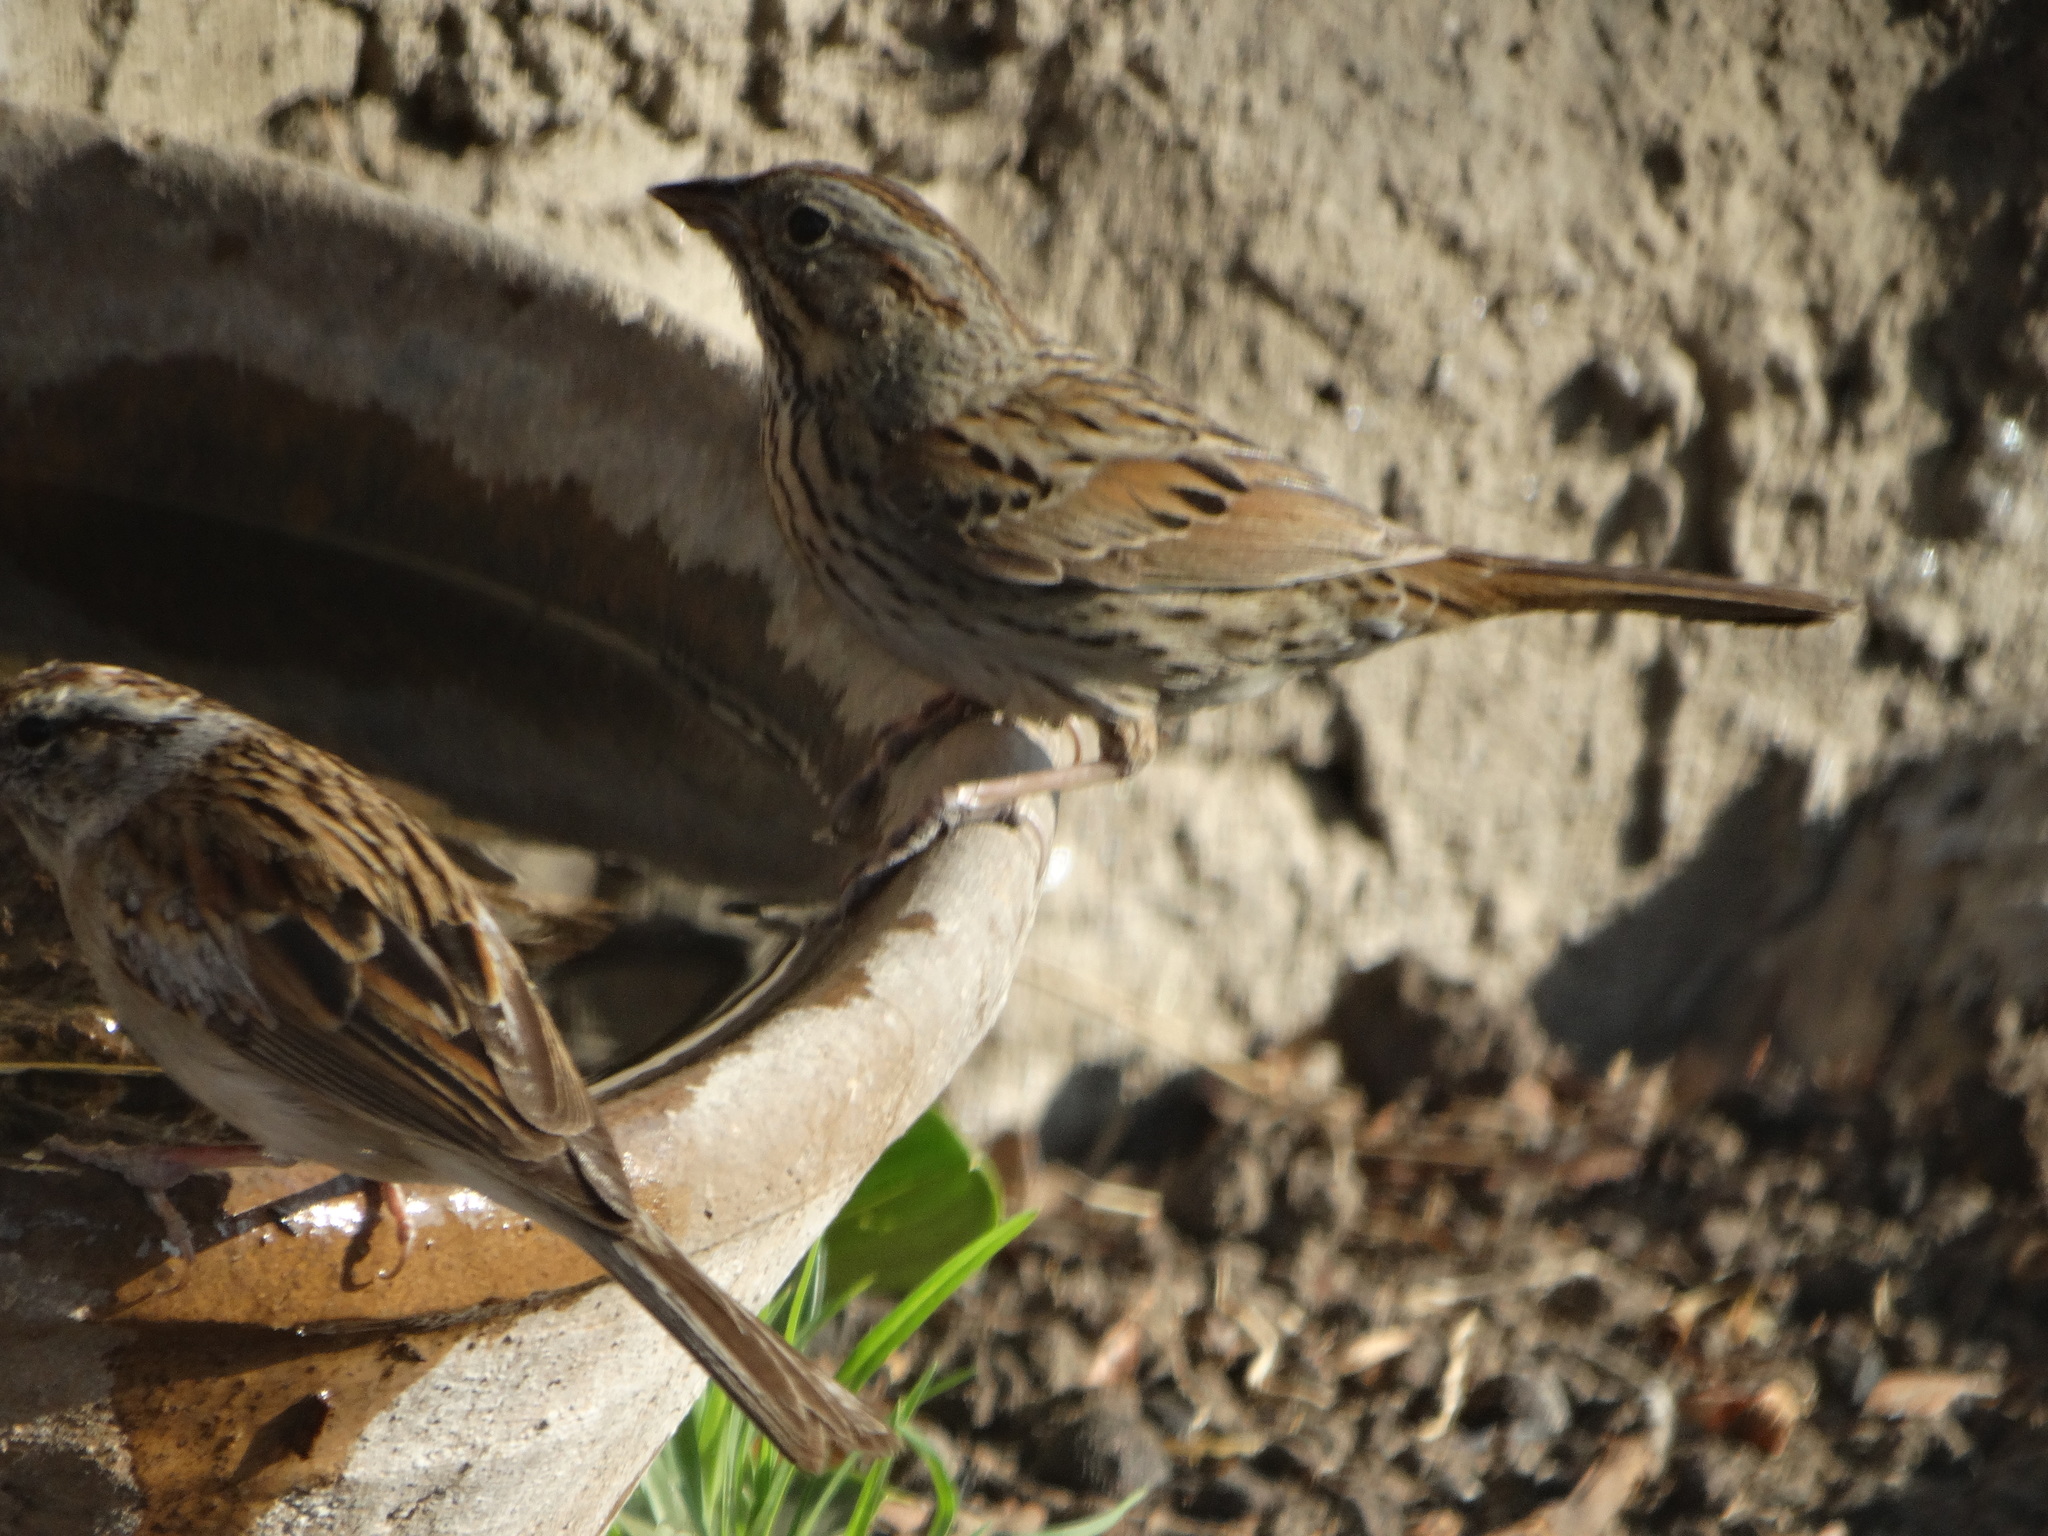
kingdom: Animalia
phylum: Chordata
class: Aves
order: Passeriformes
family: Passerellidae
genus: Melospiza
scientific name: Melospiza lincolnii
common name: Lincoln's sparrow
